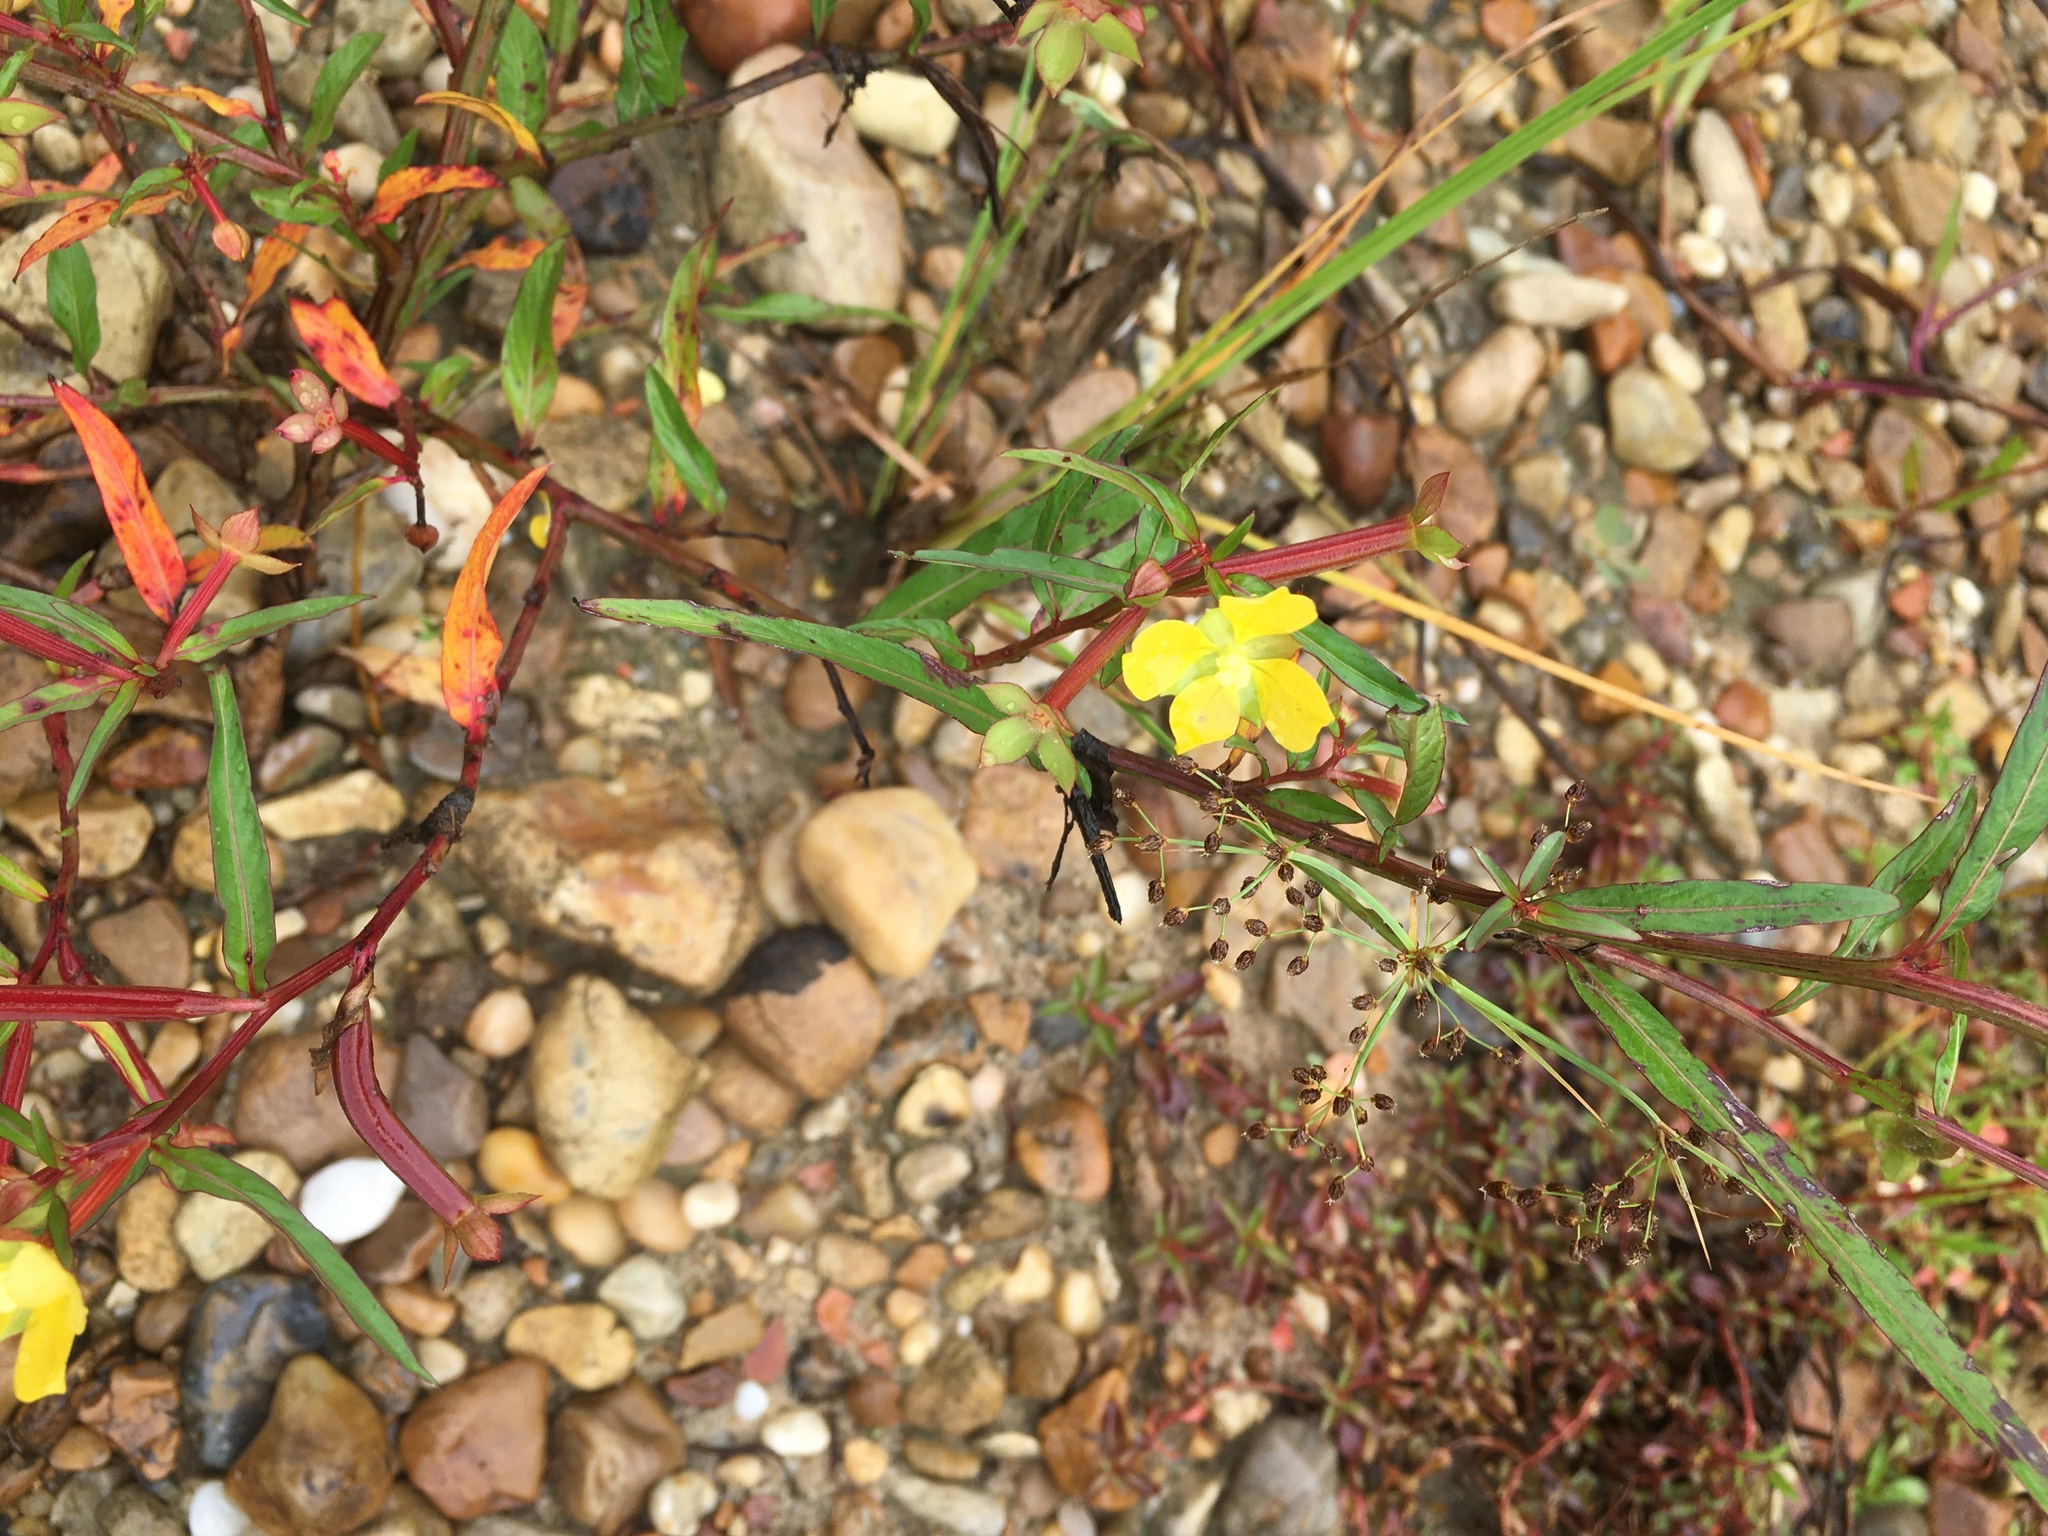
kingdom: Plantae
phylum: Tracheophyta
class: Magnoliopsida
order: Myrtales
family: Onagraceae
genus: Ludwigia
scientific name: Ludwigia octovalvis
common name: Water-primrose
